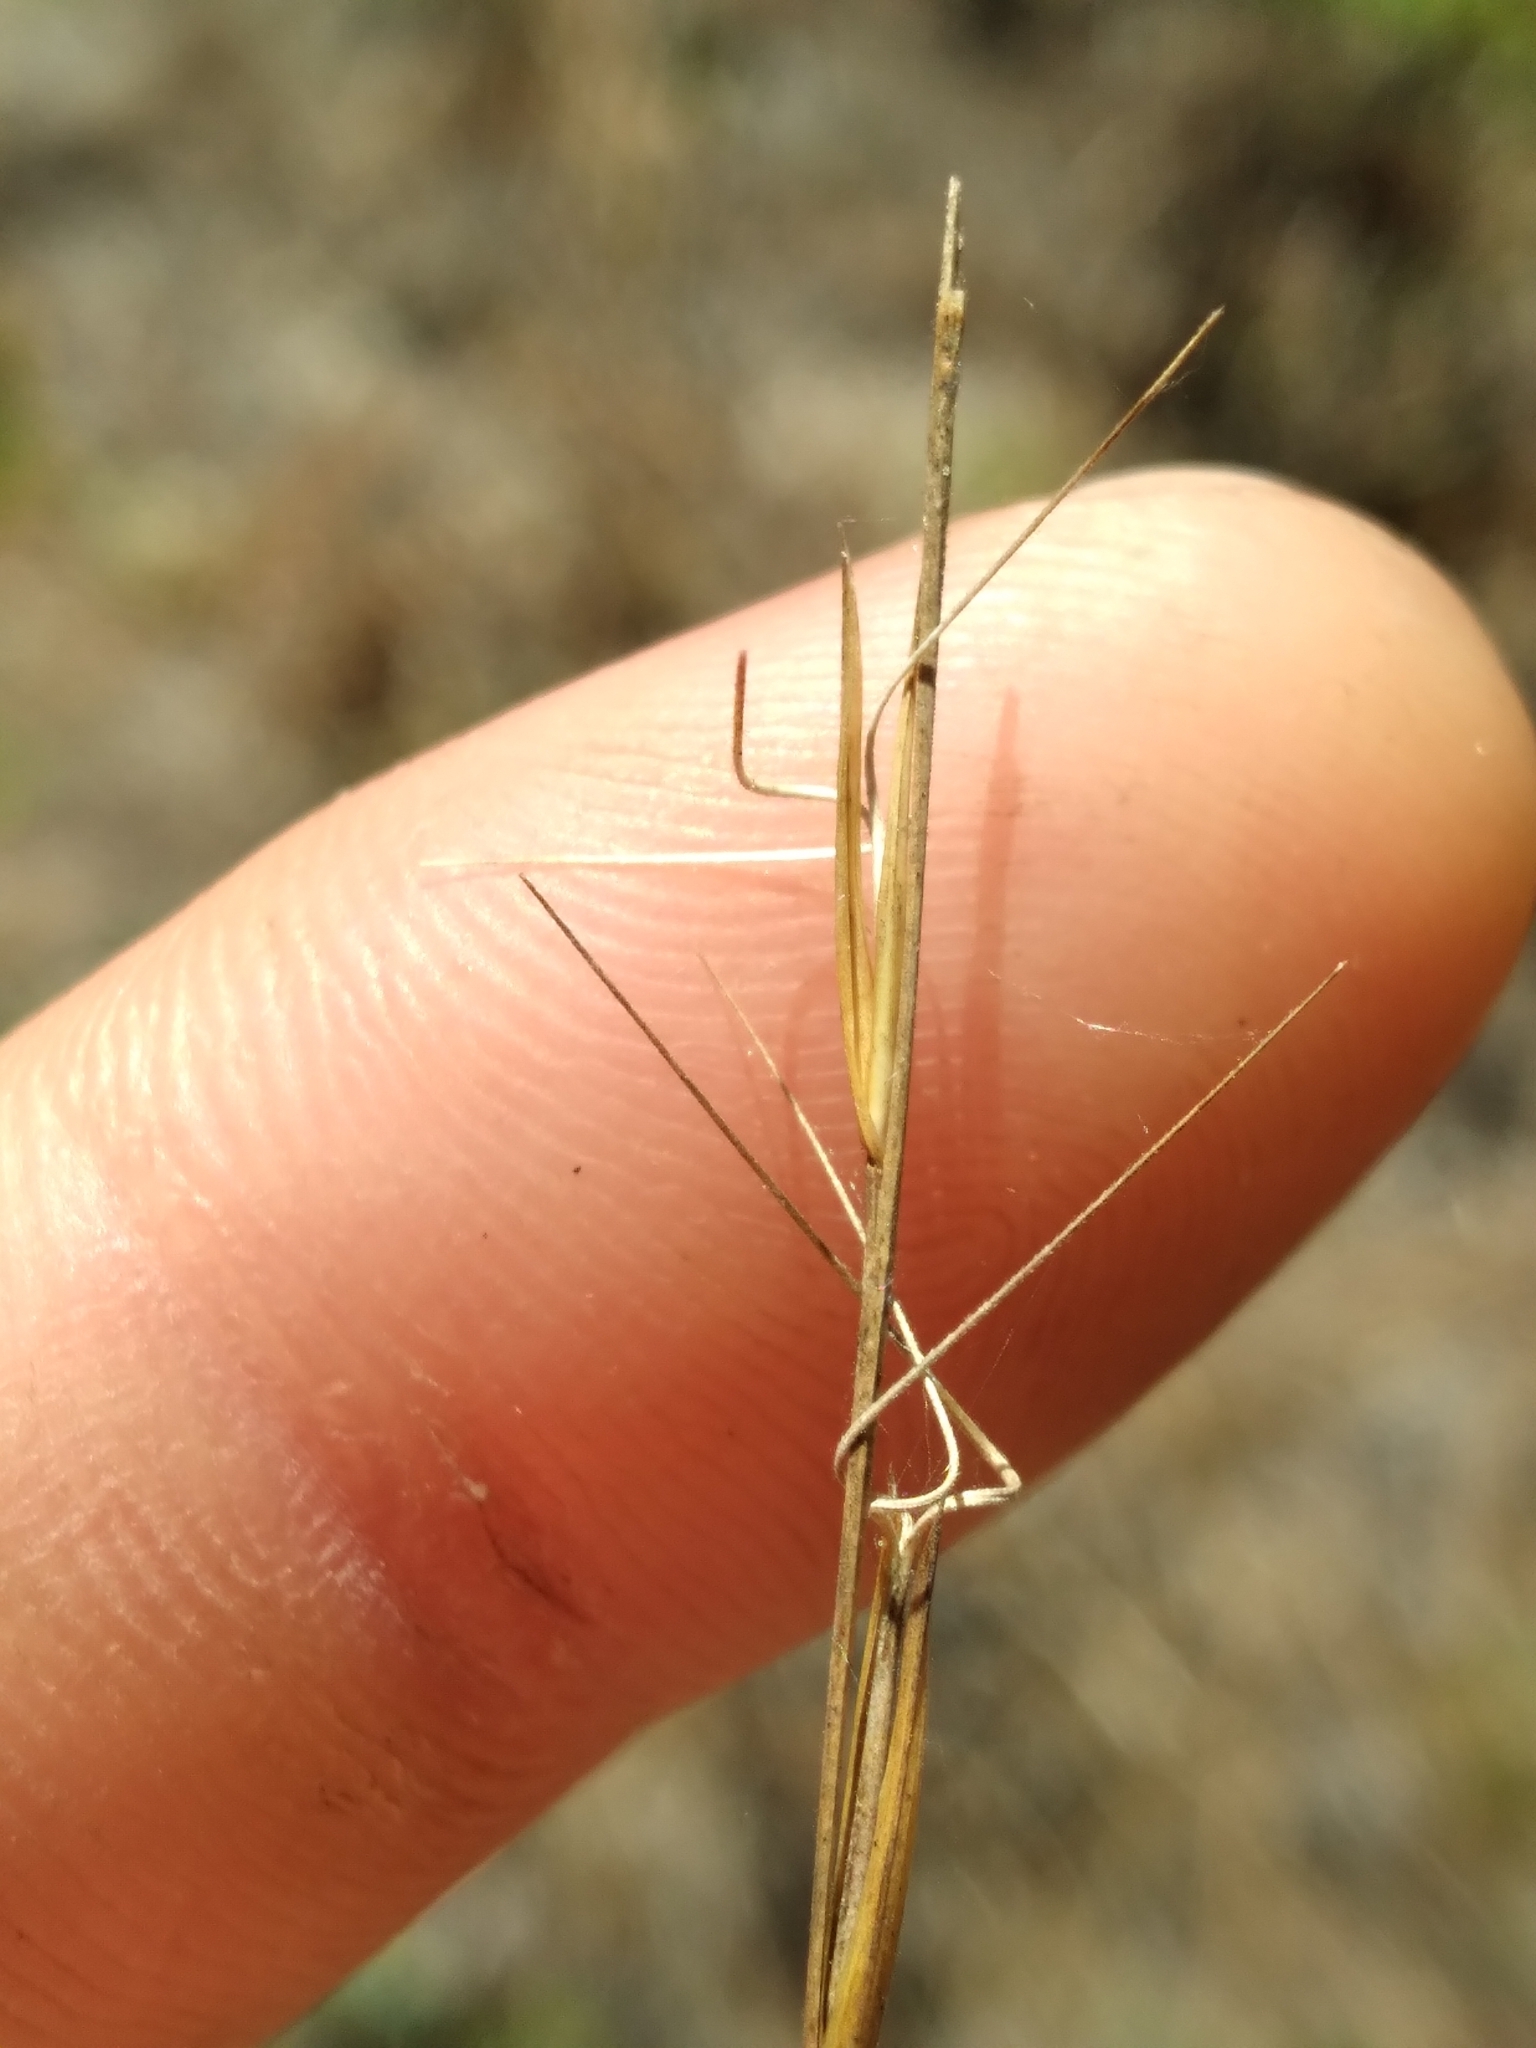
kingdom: Plantae
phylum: Tracheophyta
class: Liliopsida
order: Poales
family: Poaceae
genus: Aristida
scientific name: Aristida mohrii
